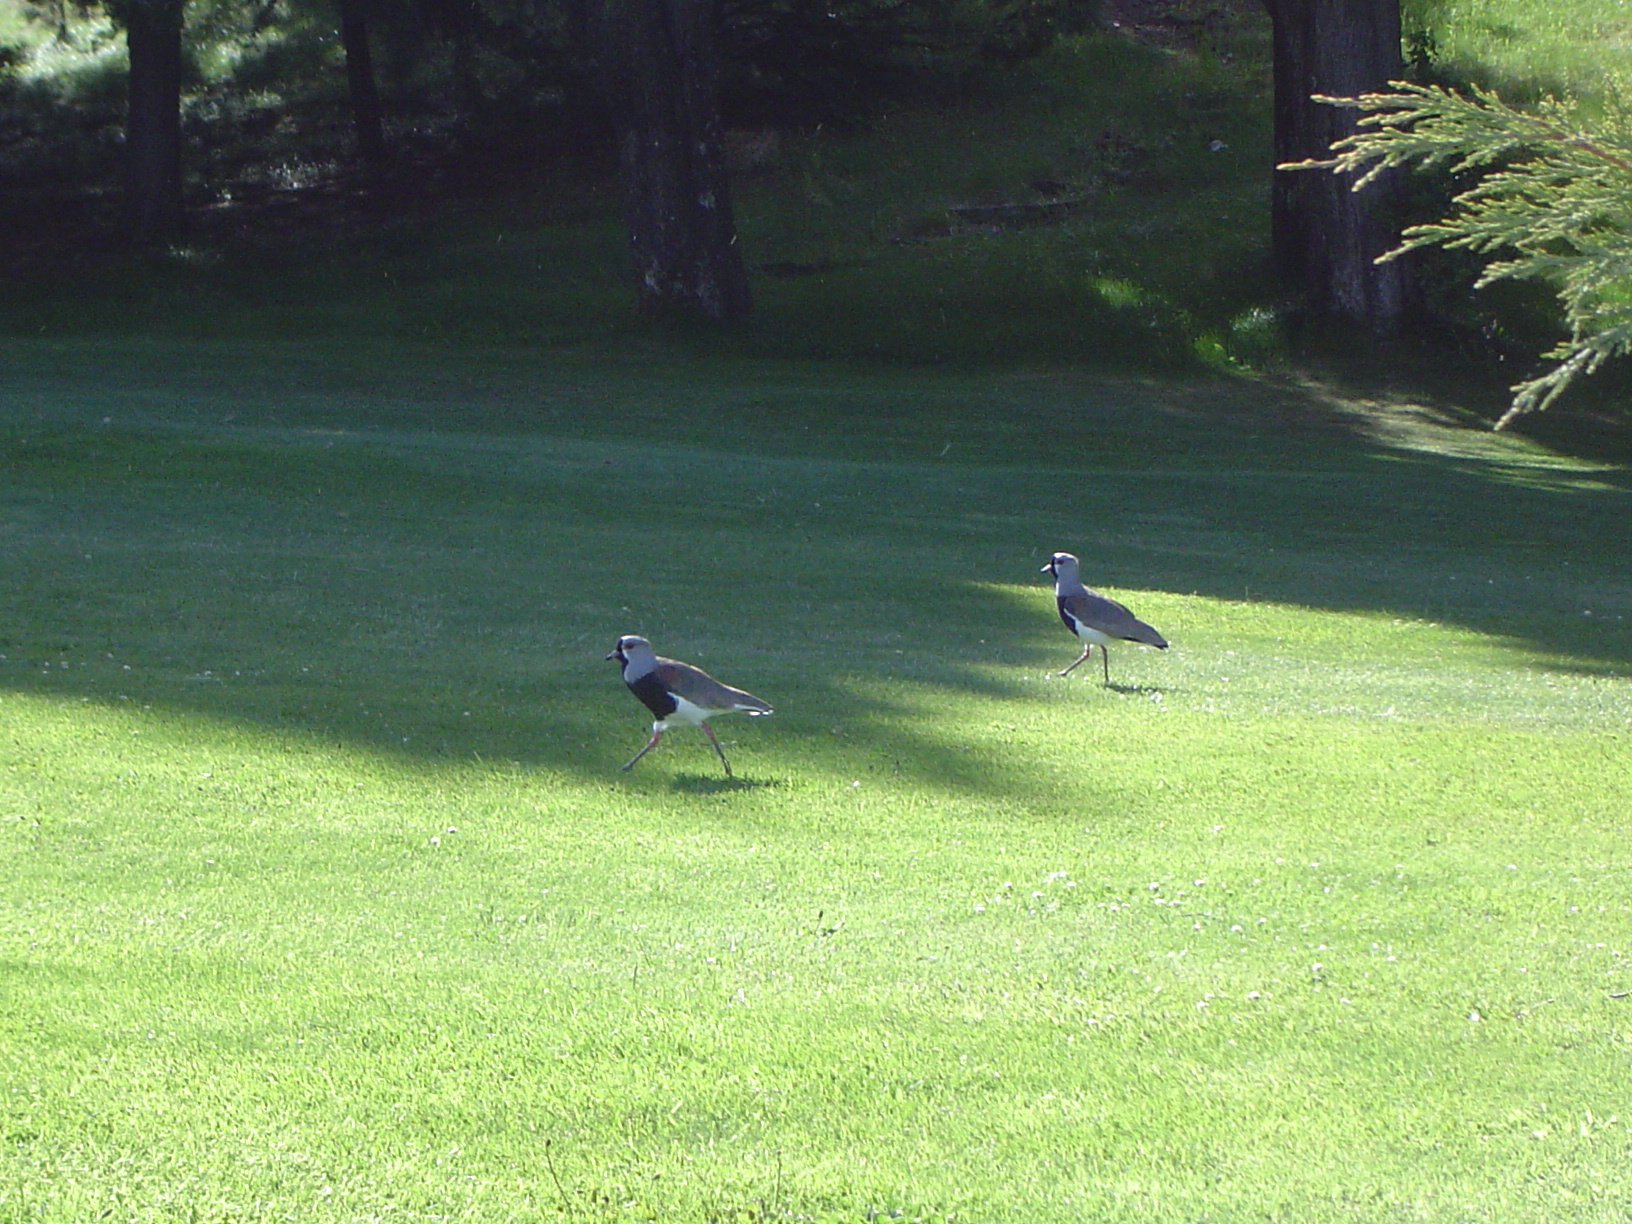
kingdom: Animalia
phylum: Chordata
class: Aves
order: Charadriiformes
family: Charadriidae
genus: Vanellus
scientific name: Vanellus chilensis
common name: Southern lapwing
